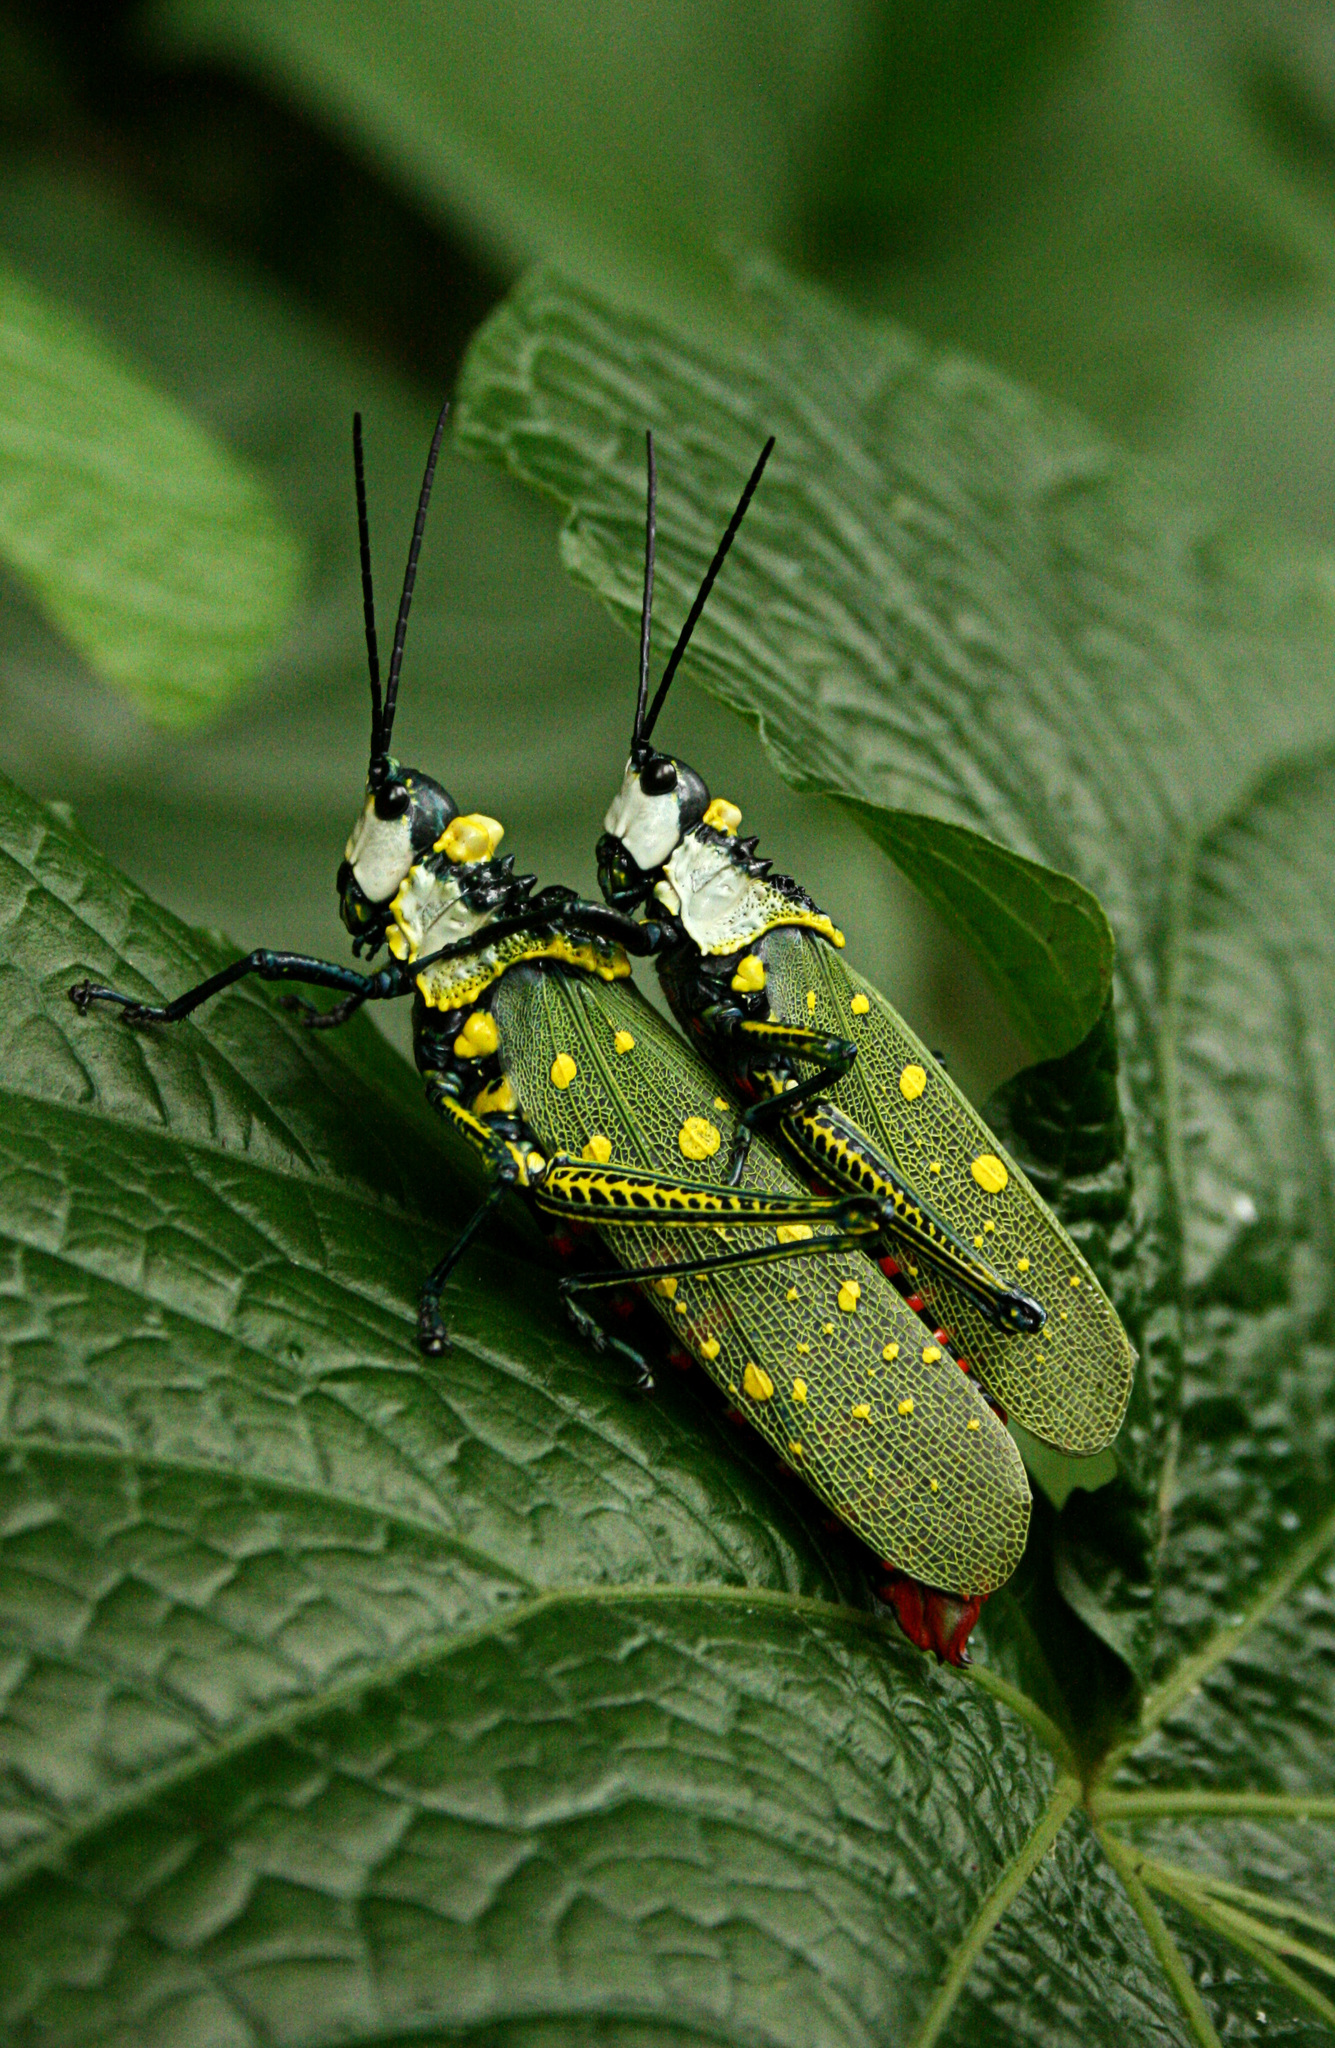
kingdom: Animalia
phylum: Arthropoda
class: Insecta
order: Orthoptera
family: Pyrgomorphidae
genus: Aularches
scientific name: Aularches miliaris
